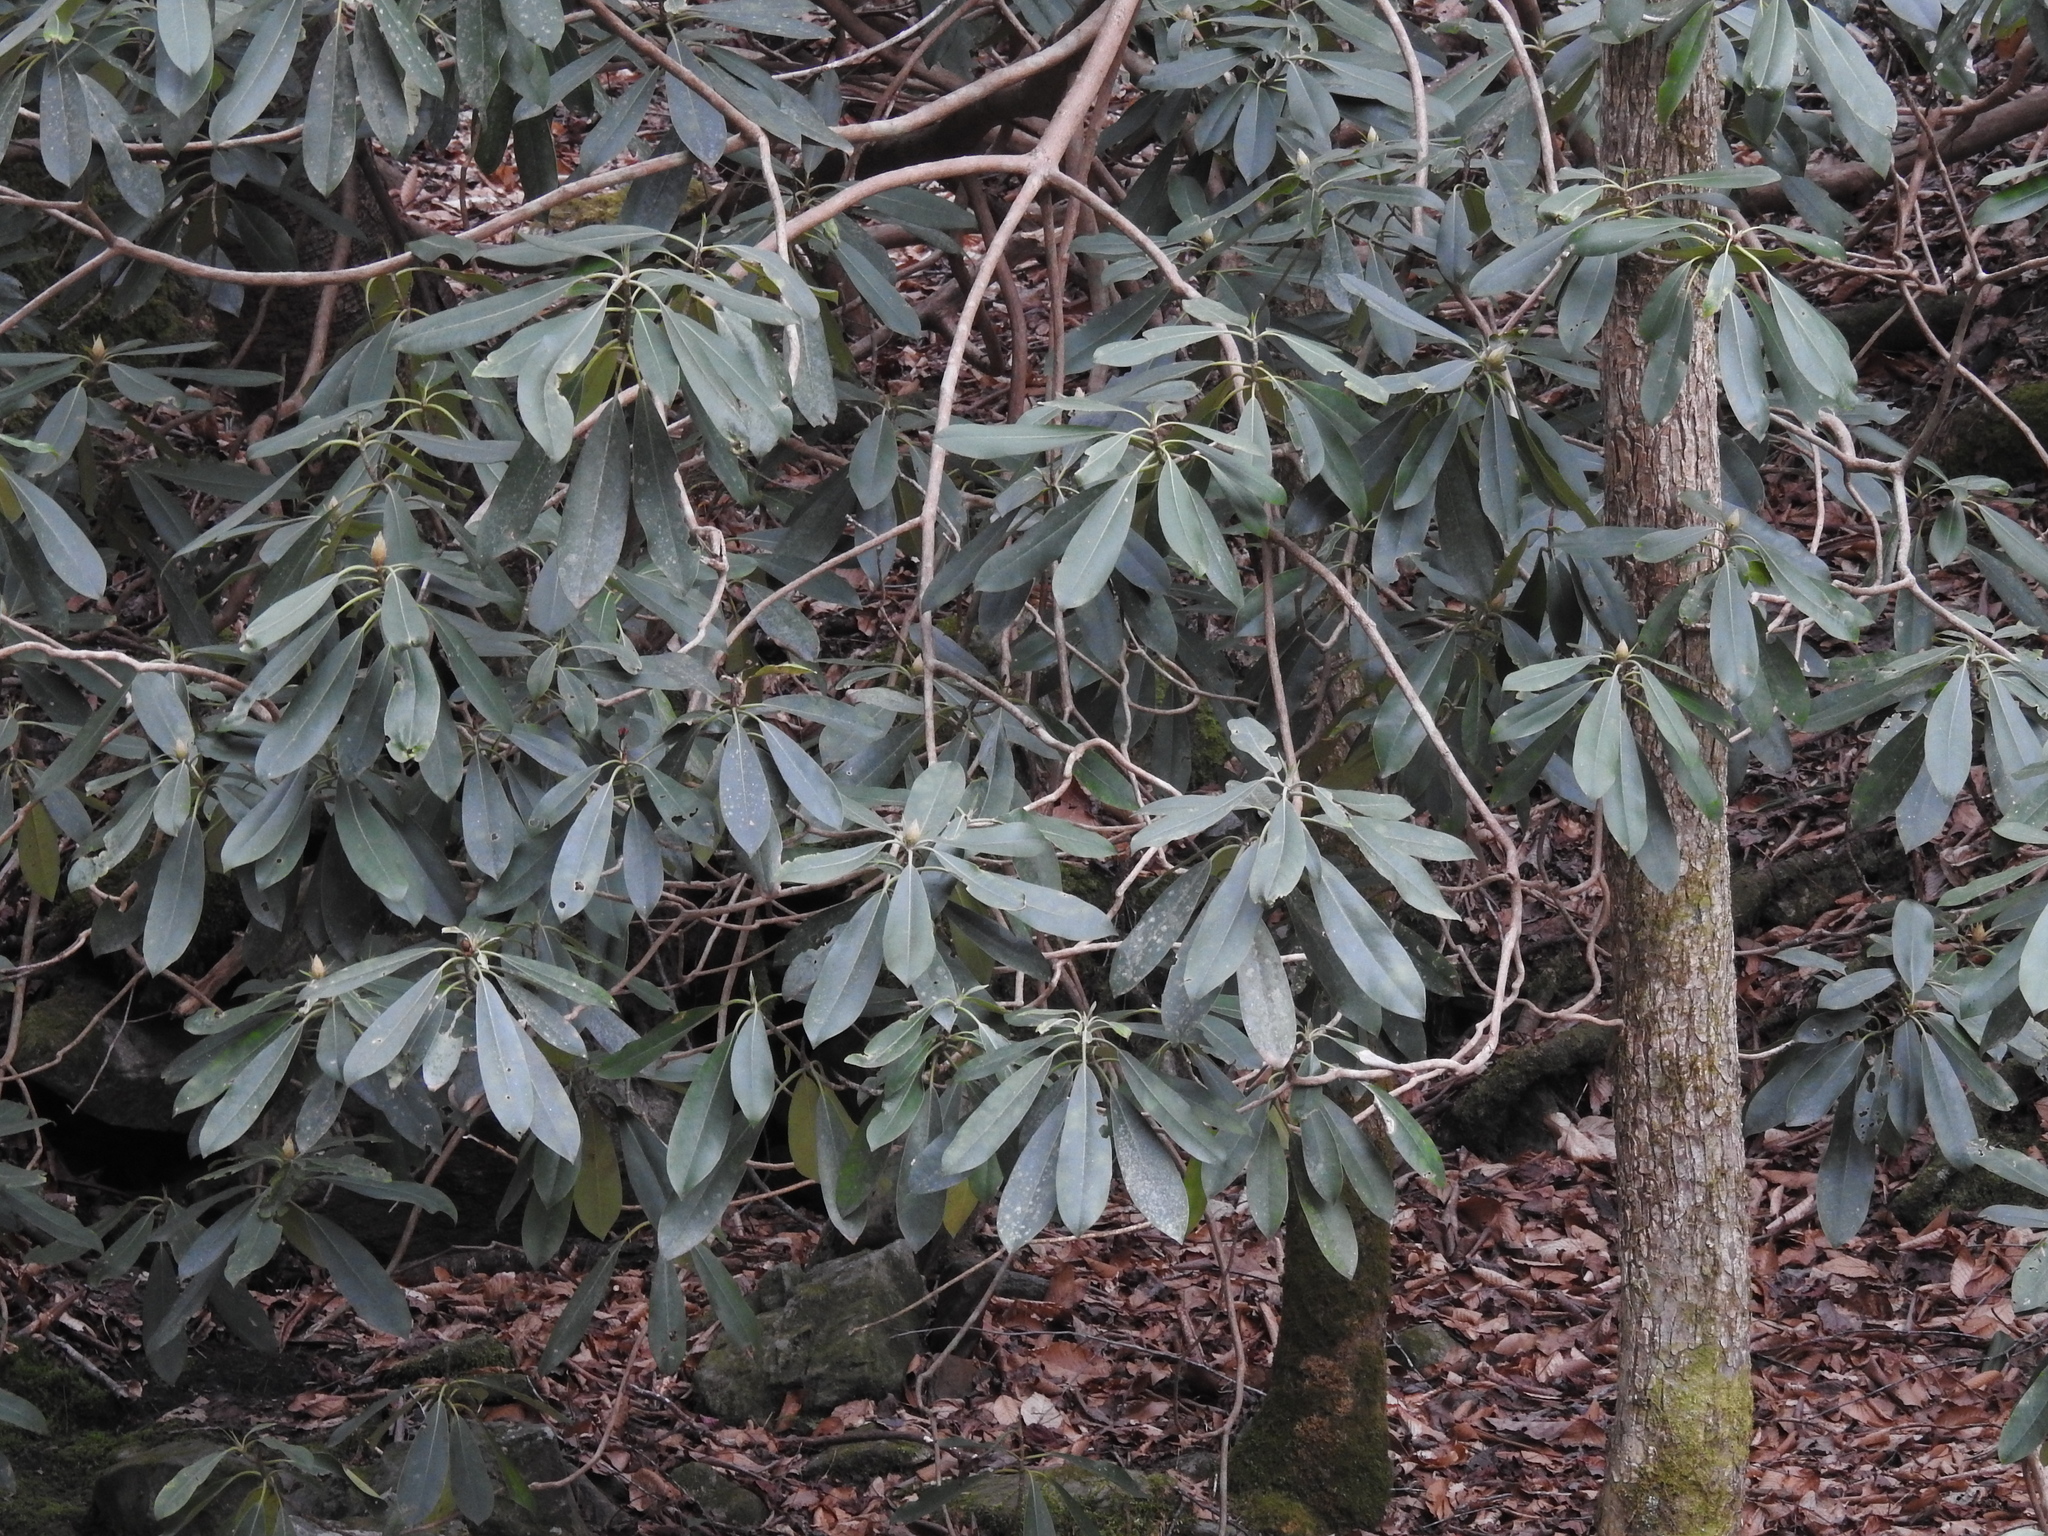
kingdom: Plantae
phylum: Tracheophyta
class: Magnoliopsida
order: Ericales
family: Ericaceae
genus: Rhododendron
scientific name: Rhododendron maximum
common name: Great rhododendron
